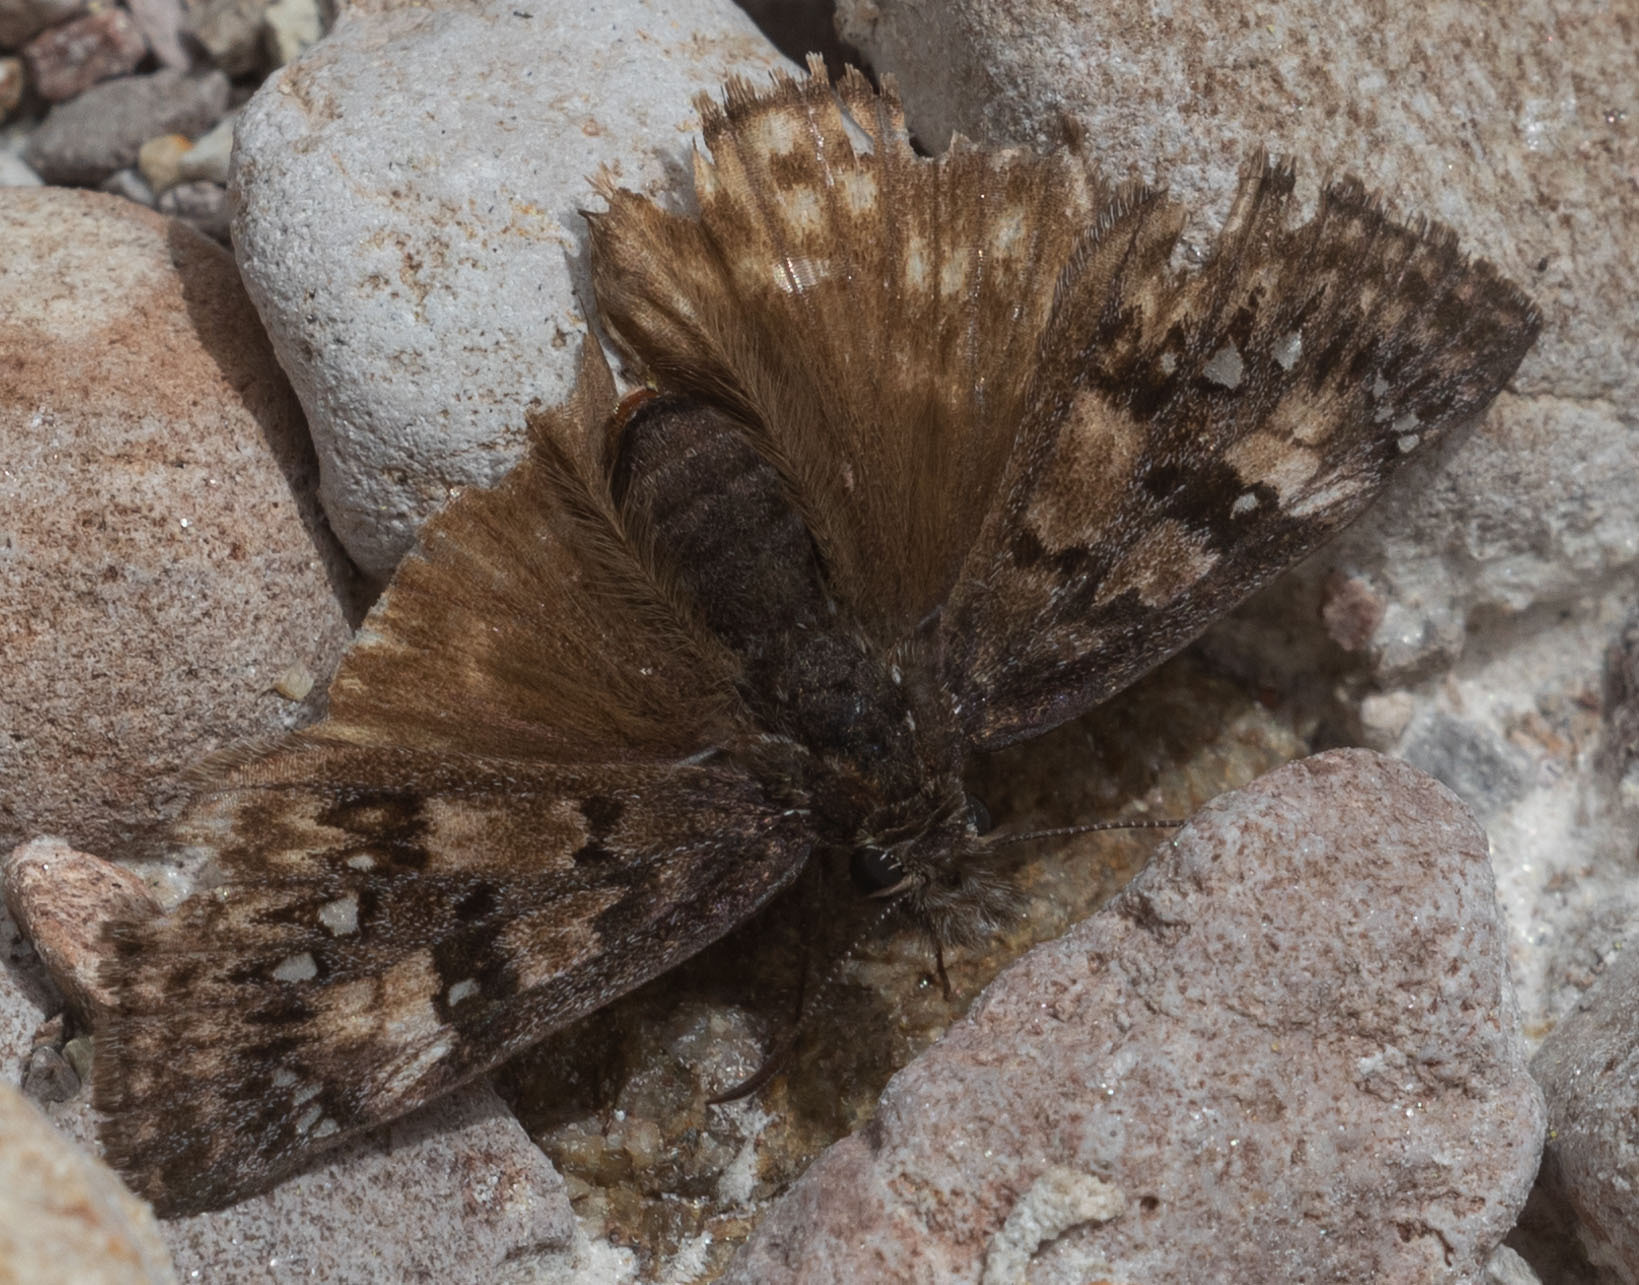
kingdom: Animalia
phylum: Arthropoda
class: Insecta
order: Lepidoptera
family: Hesperiidae
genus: Erynnis
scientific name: Erynnis propertius
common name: Propertius duskywing
